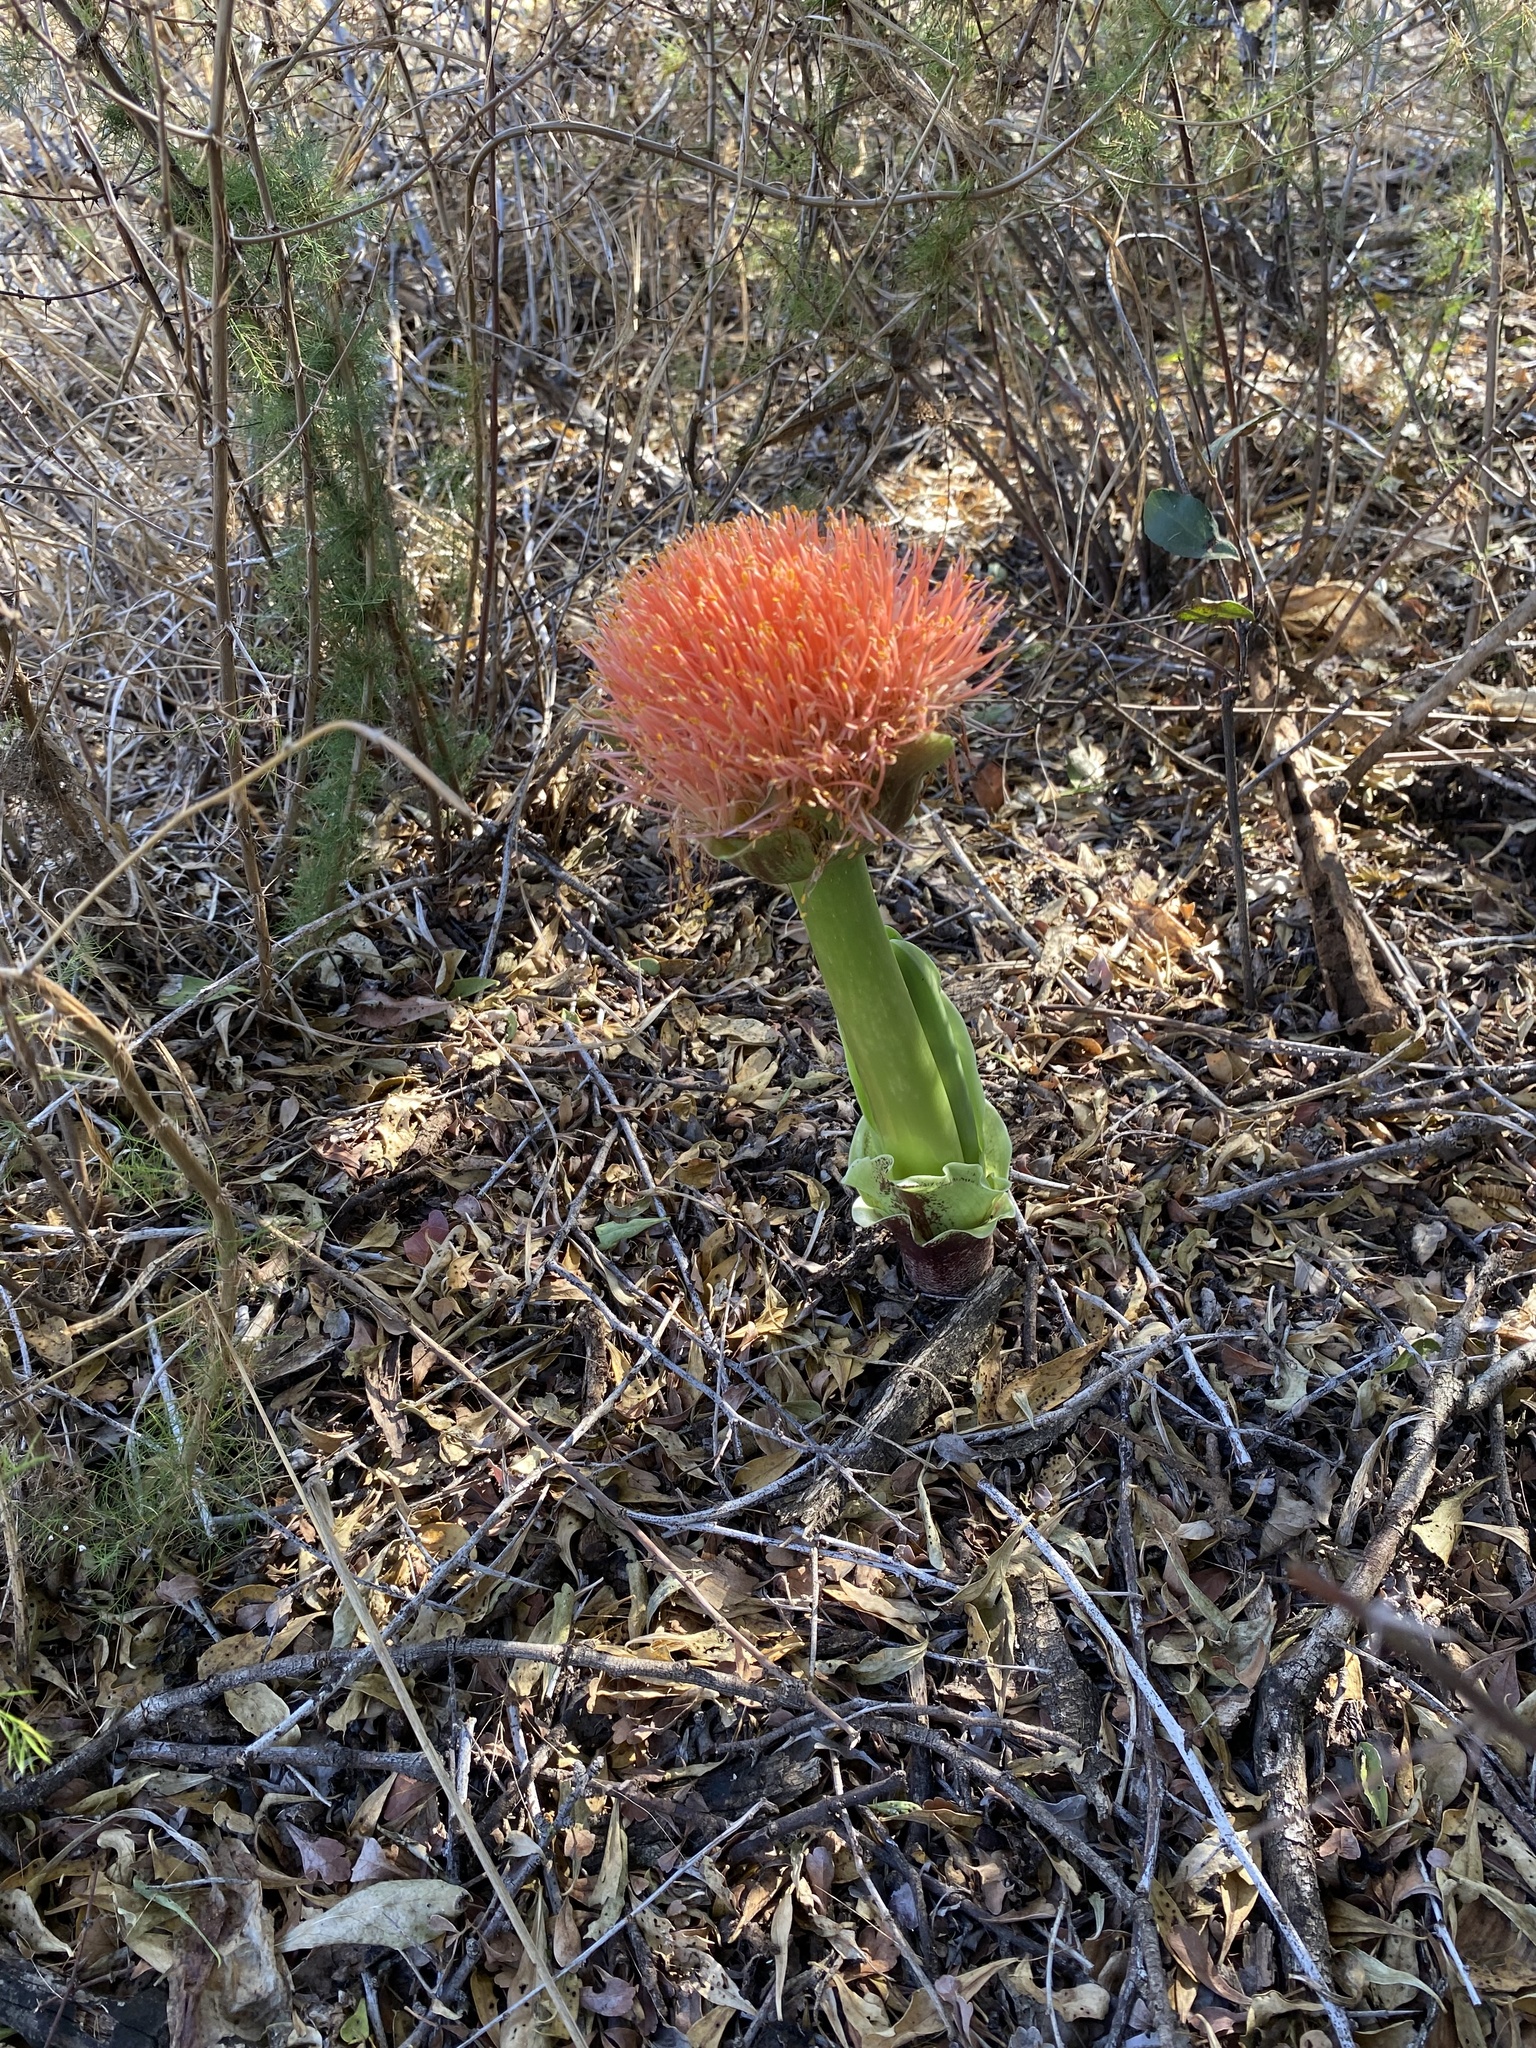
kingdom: Plantae
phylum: Tracheophyta
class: Liliopsida
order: Asparagales
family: Amaryllidaceae
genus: Scadoxus
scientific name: Scadoxus puniceus
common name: Royal-paintbrush
